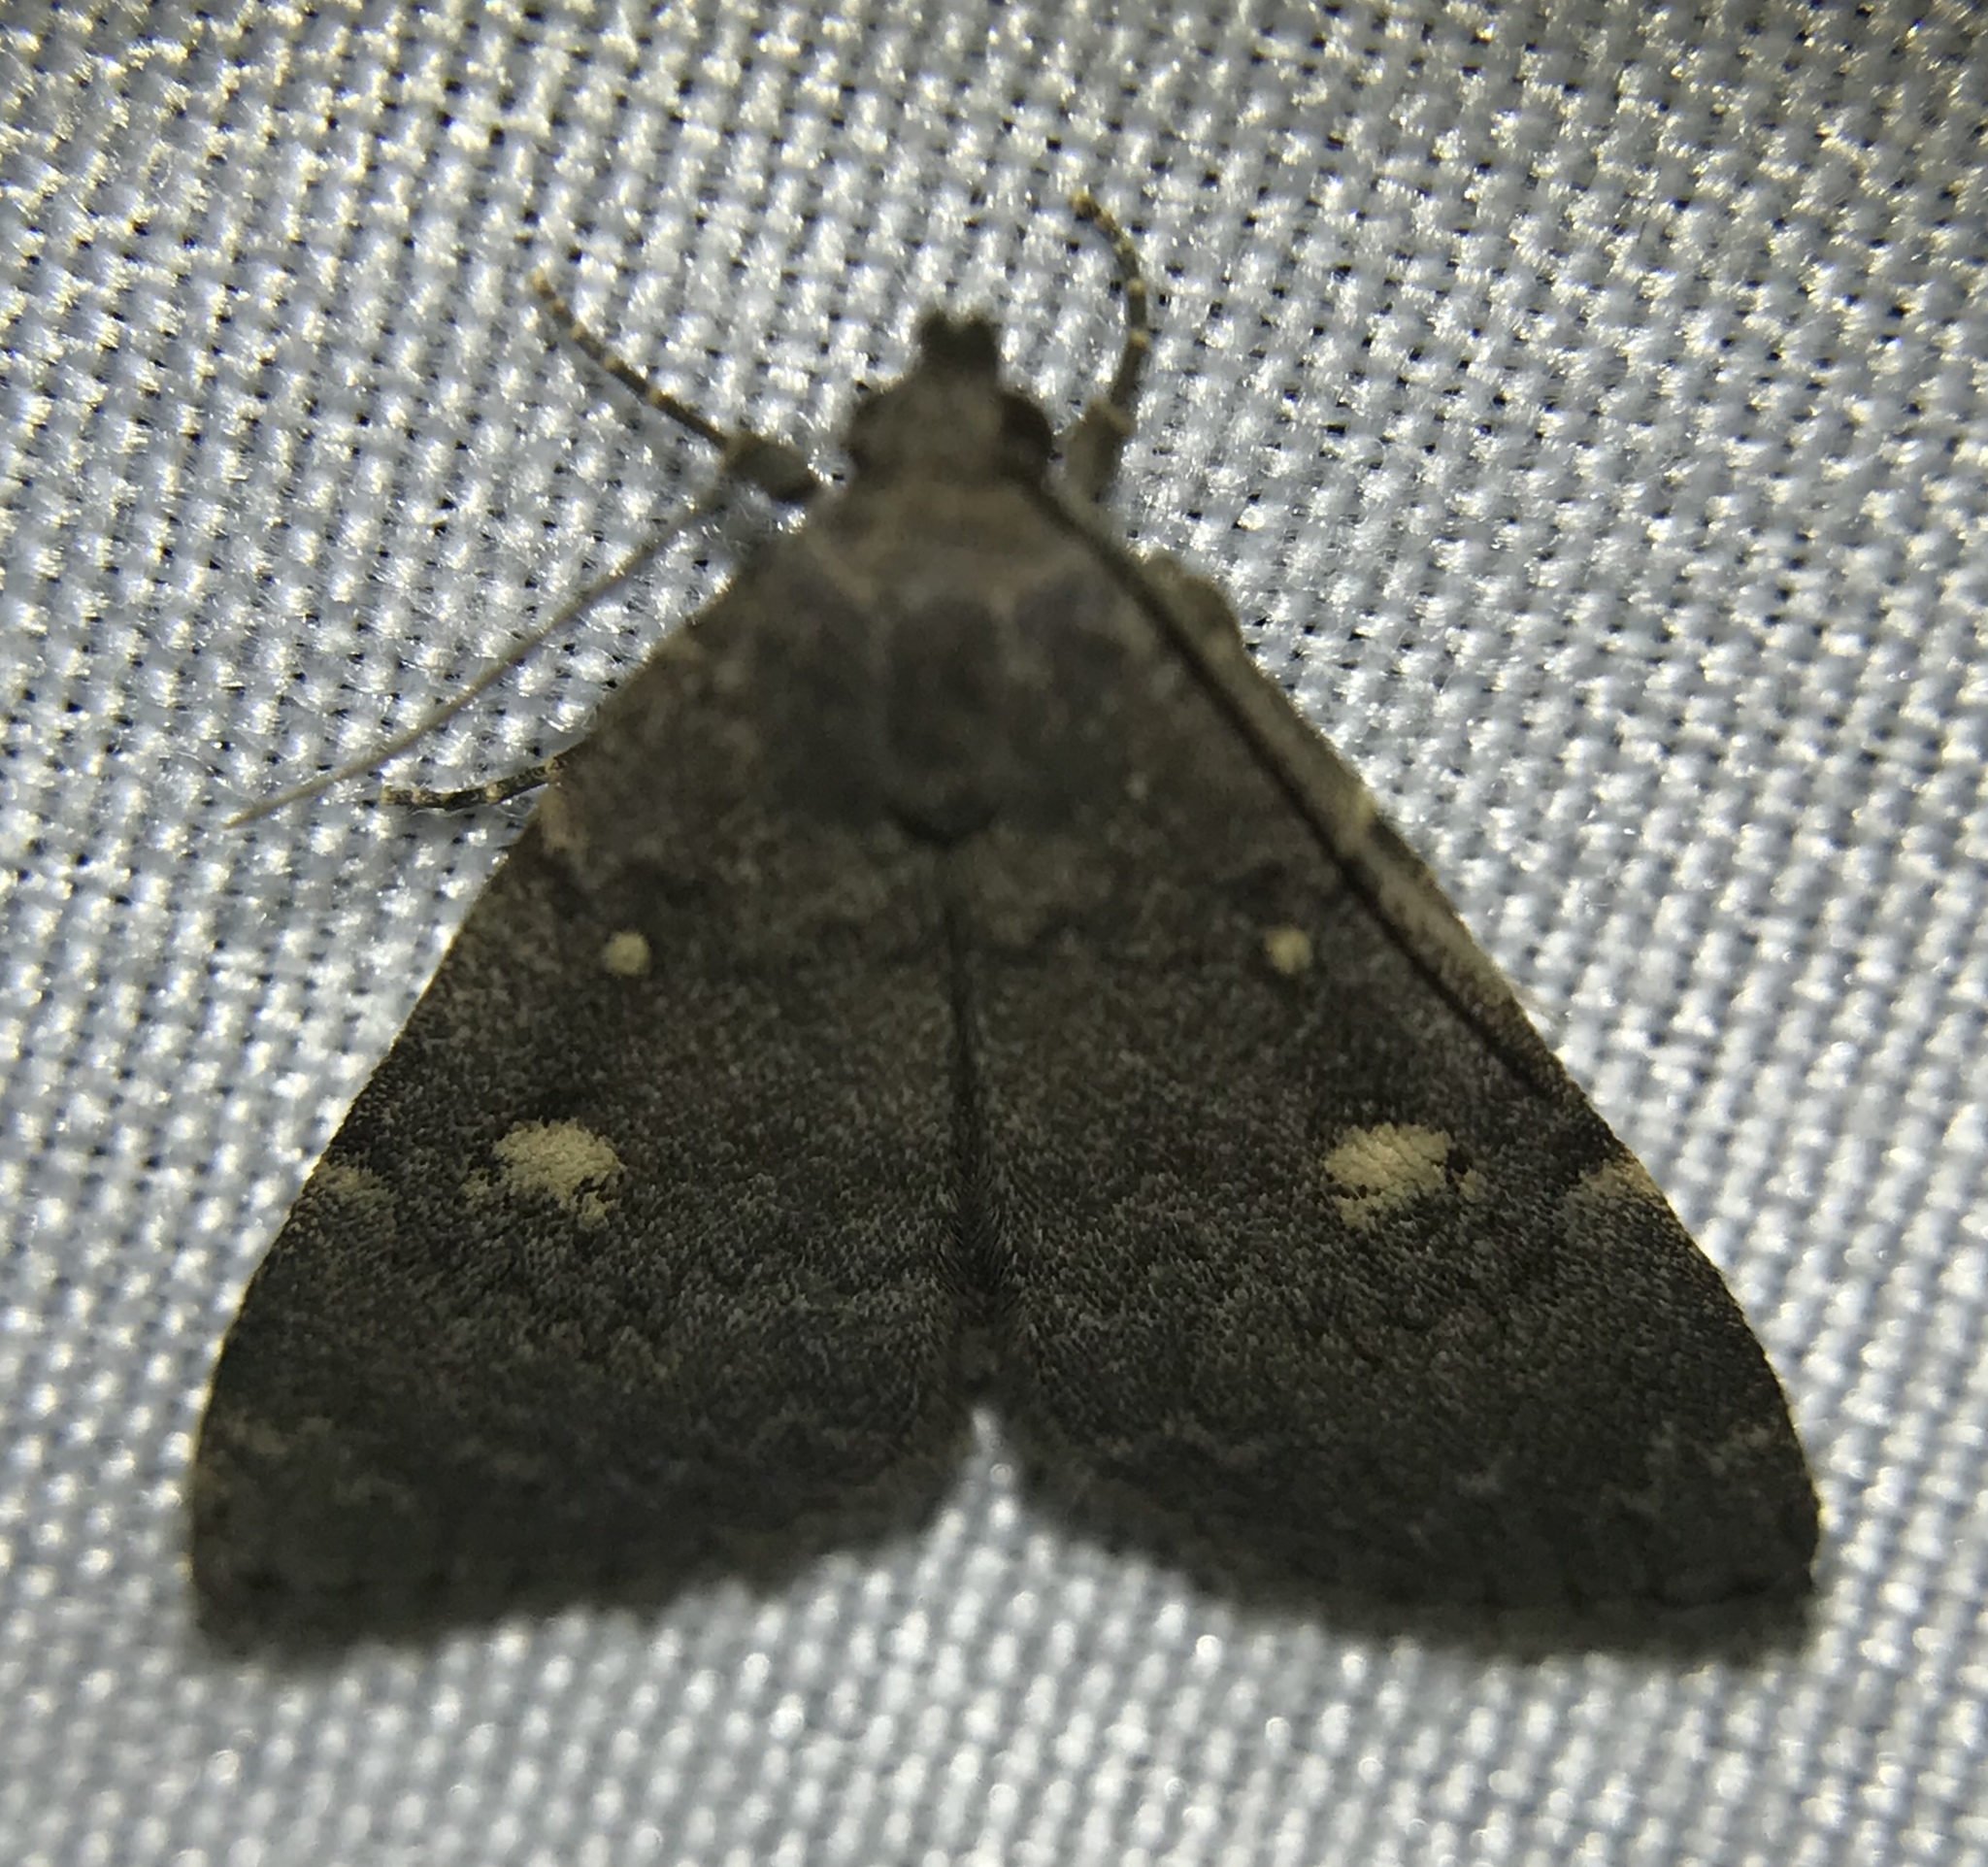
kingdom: Animalia
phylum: Arthropoda
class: Insecta
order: Lepidoptera
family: Erebidae
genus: Idia
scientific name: Idia diminuendis
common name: Orange-spotted idia moth
